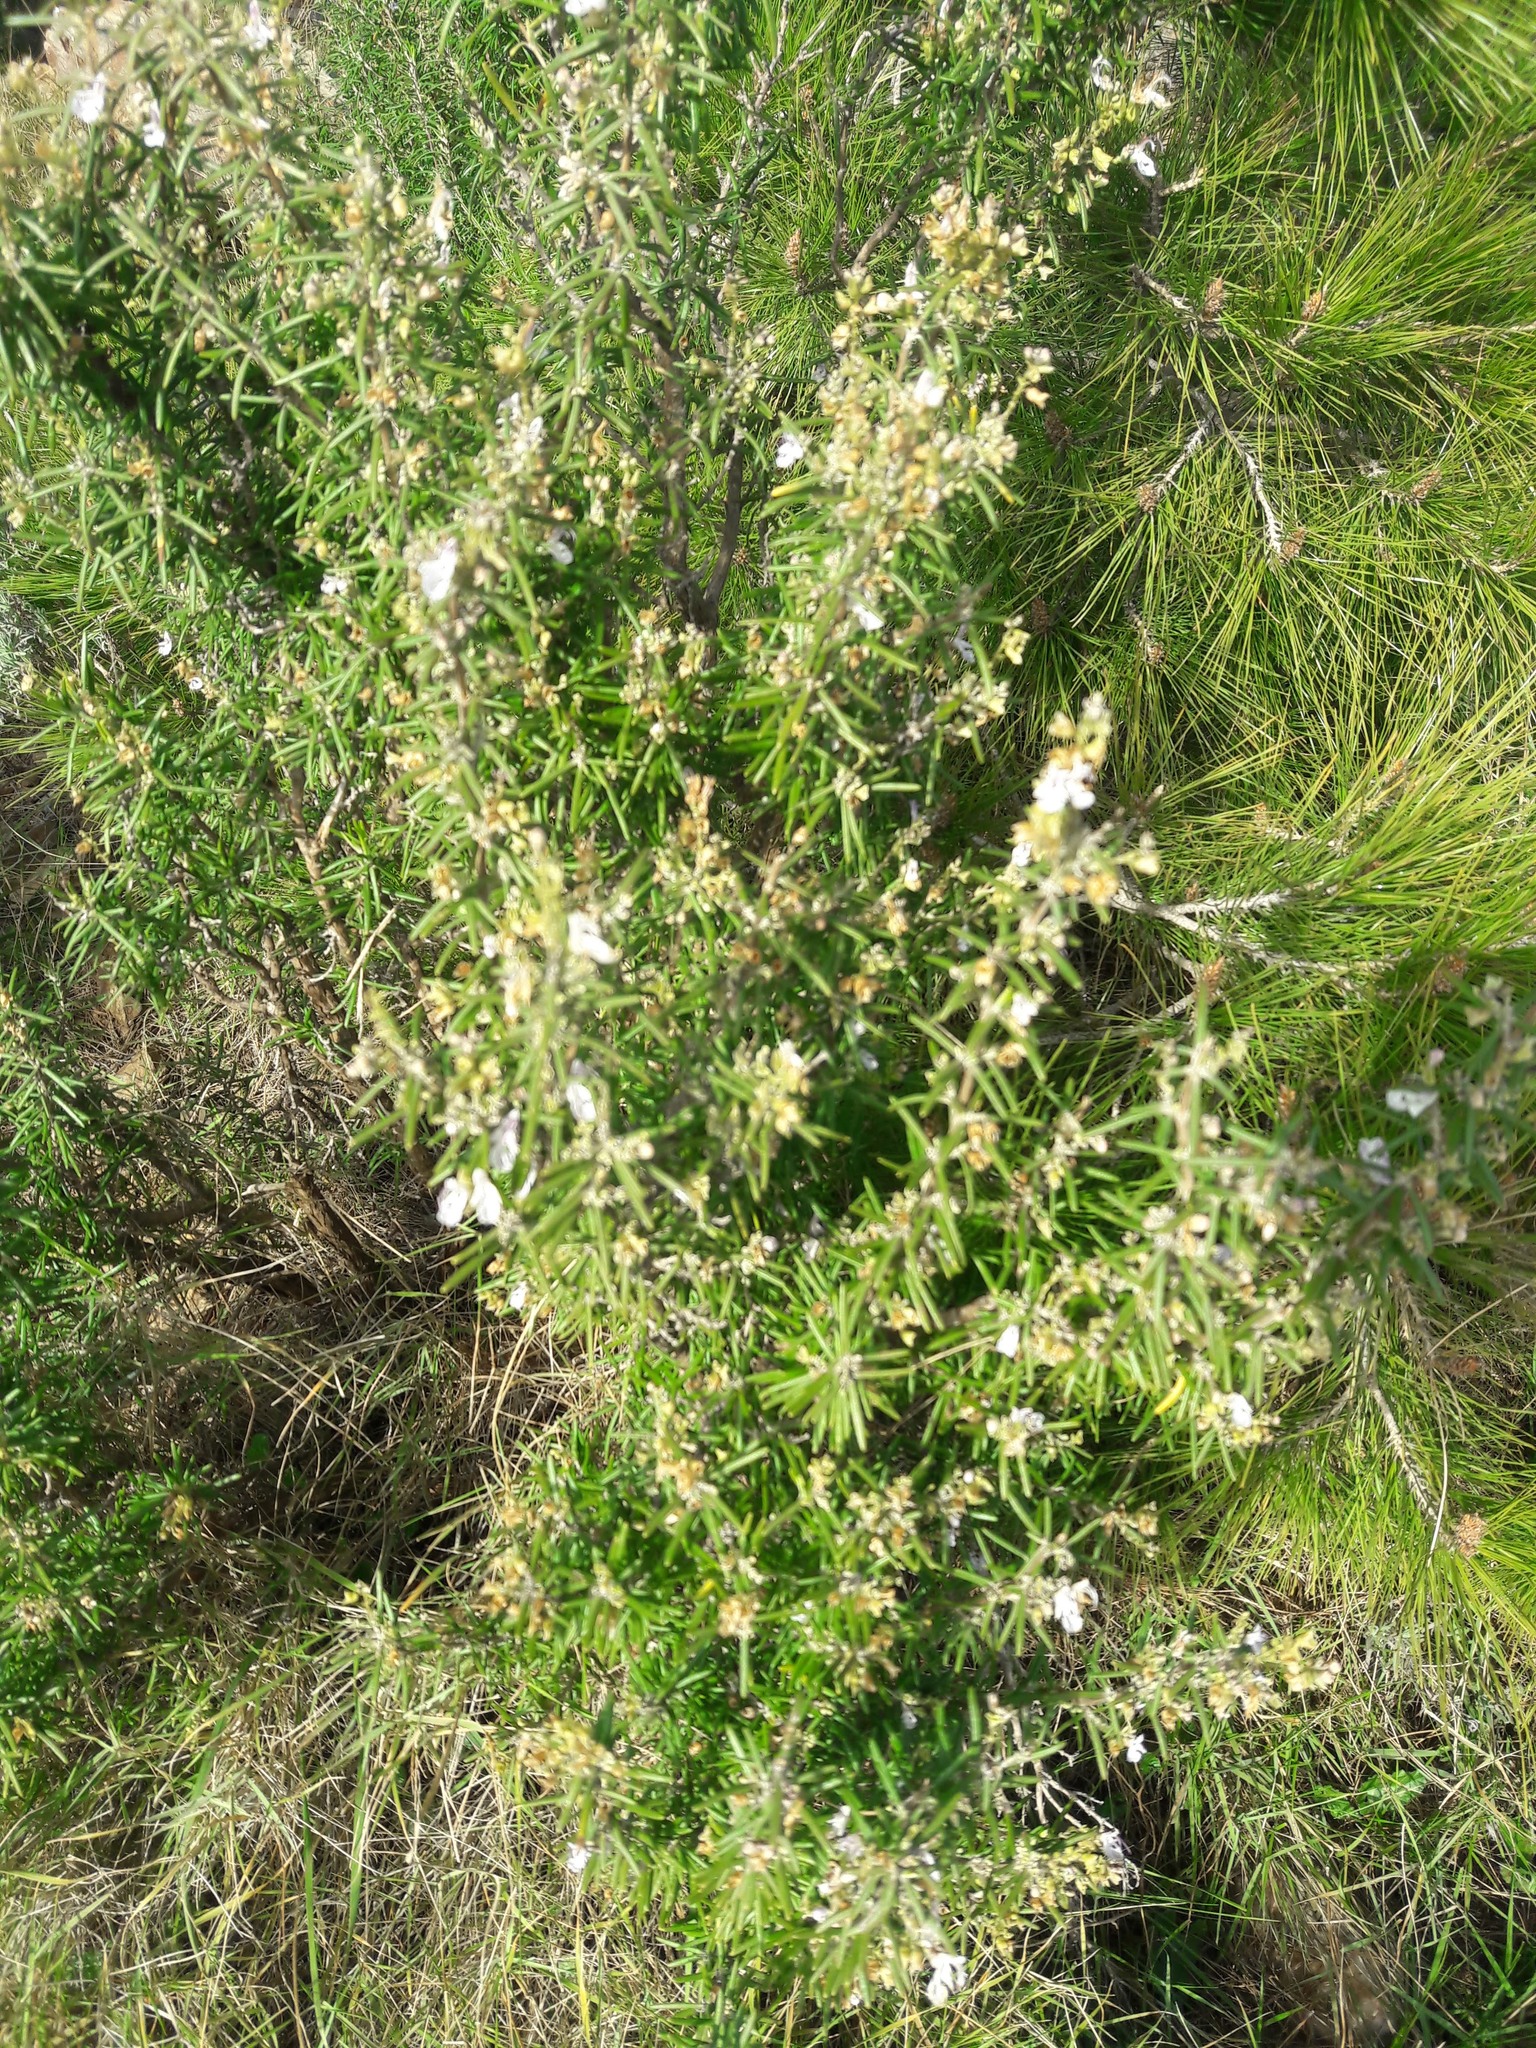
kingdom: Plantae
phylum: Tracheophyta
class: Magnoliopsida
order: Lamiales
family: Lamiaceae
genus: Salvia
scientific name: Salvia rosmarinus
